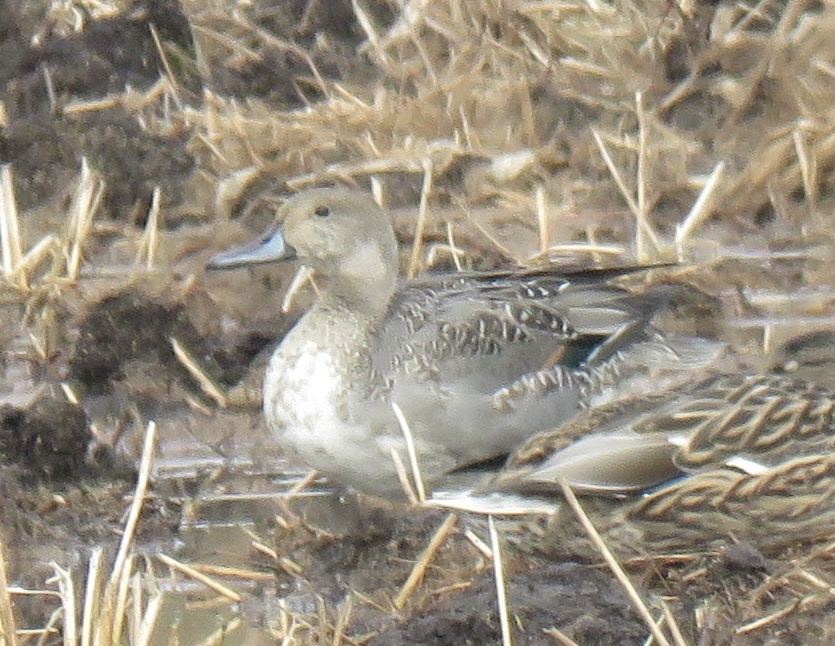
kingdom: Animalia
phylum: Chordata
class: Aves
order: Anseriformes
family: Anatidae
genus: Anas
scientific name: Anas acuta
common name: Northern pintail
